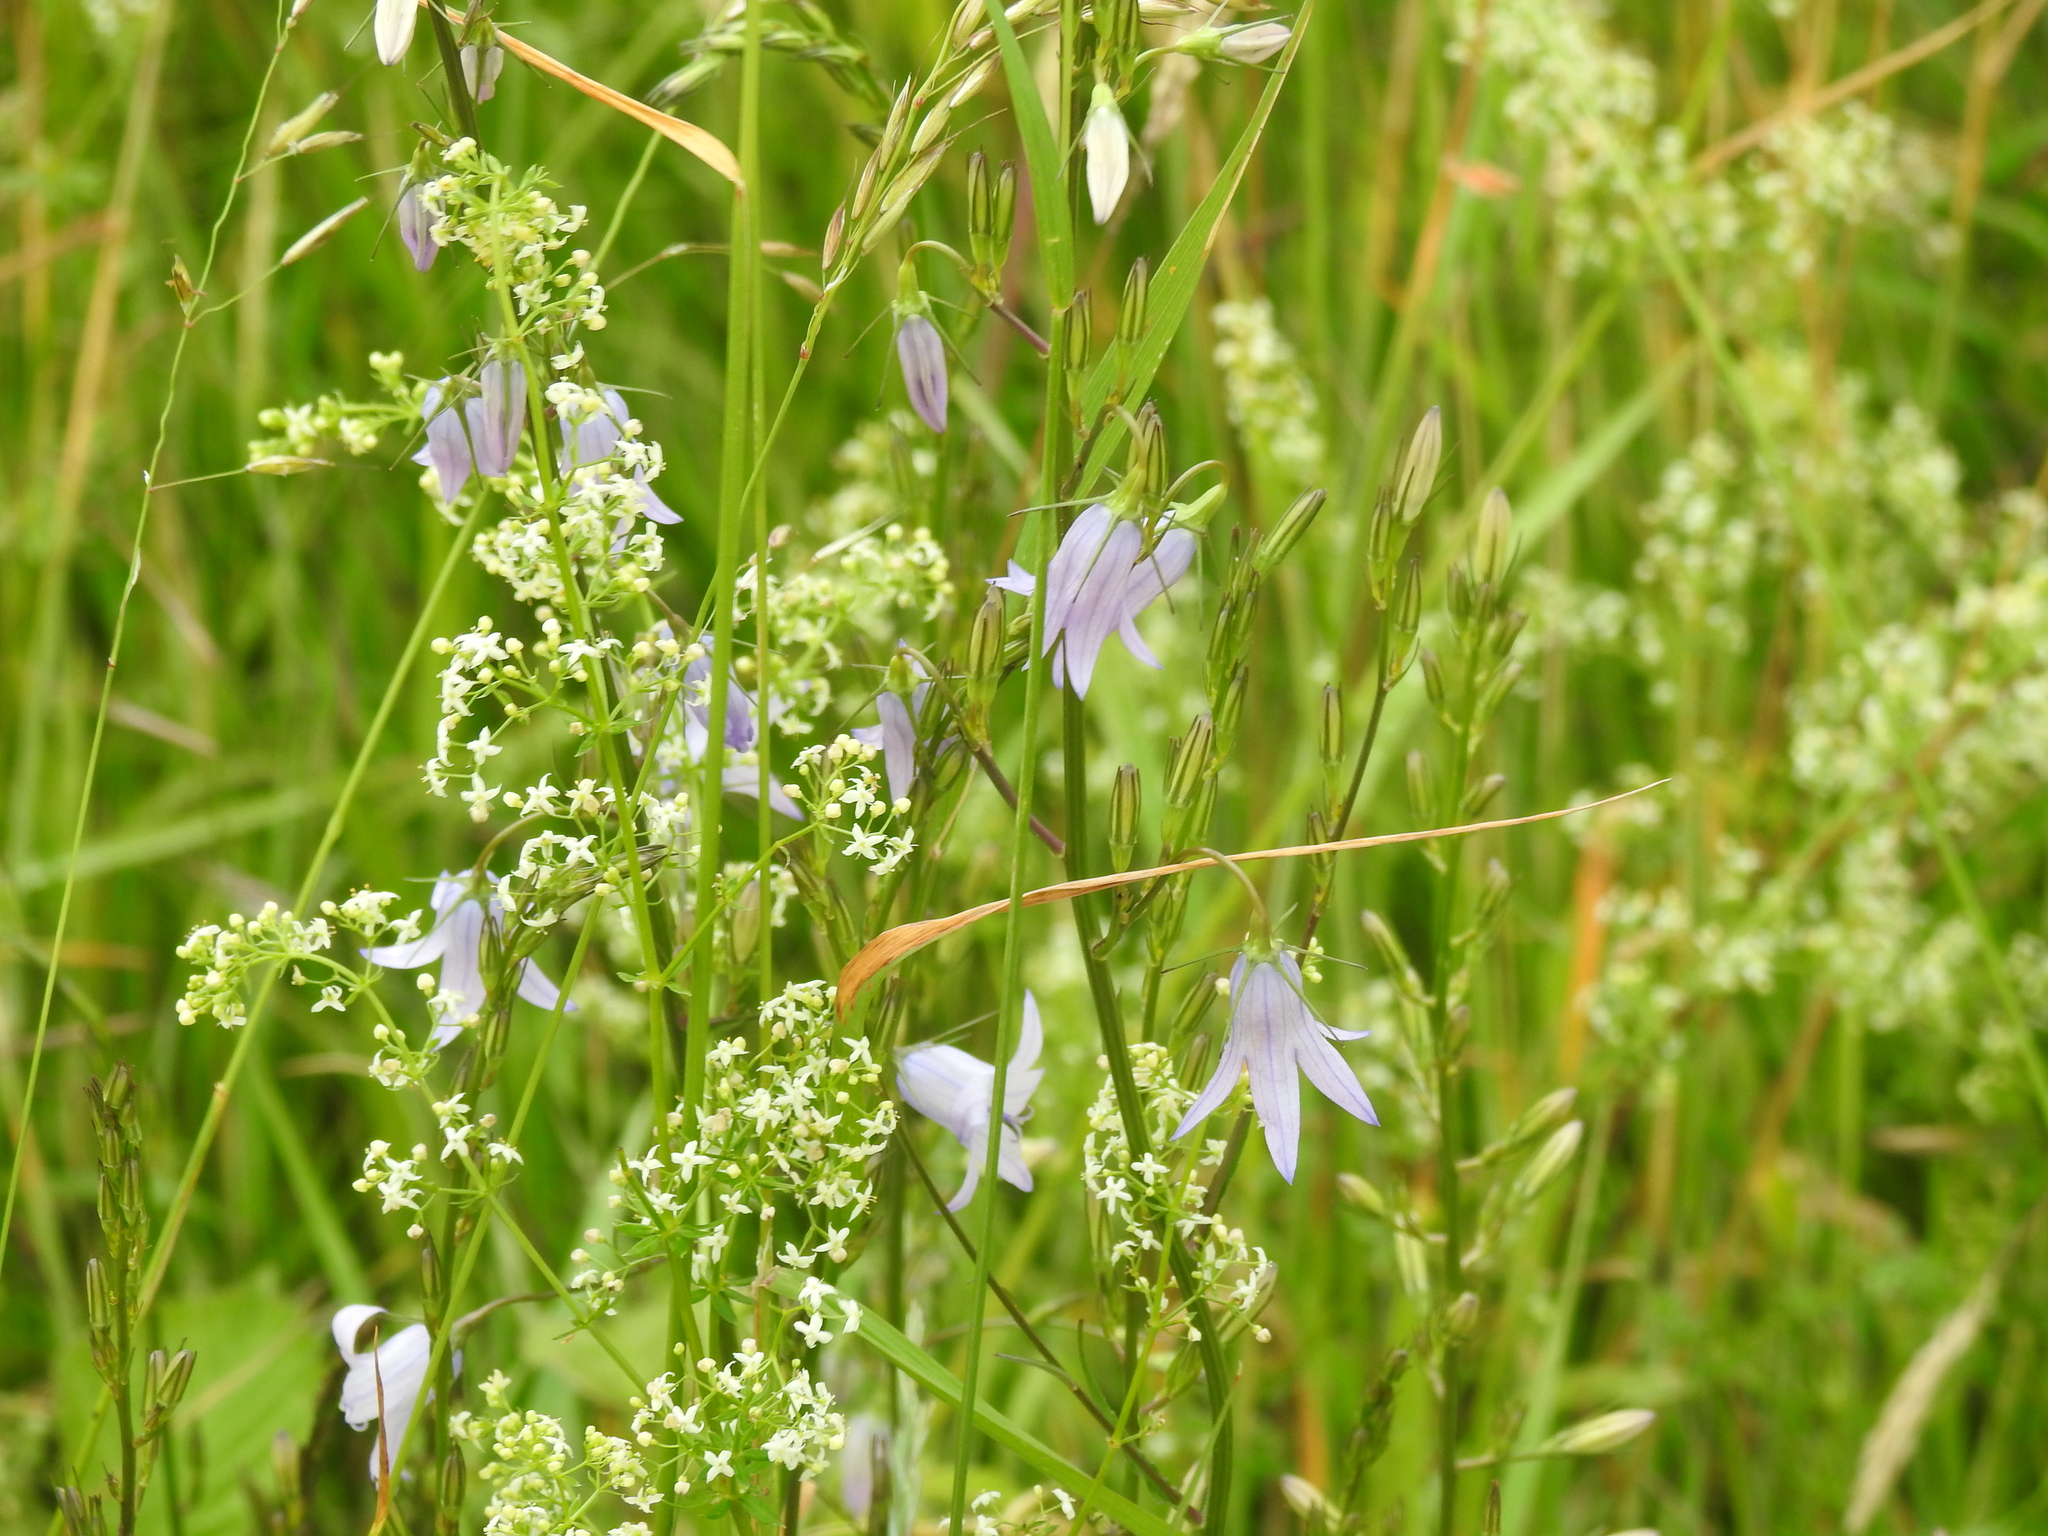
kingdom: Plantae
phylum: Tracheophyta
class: Magnoliopsida
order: Asterales
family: Campanulaceae
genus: Campanula
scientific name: Campanula rapunculus
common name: Rampion bellflower
